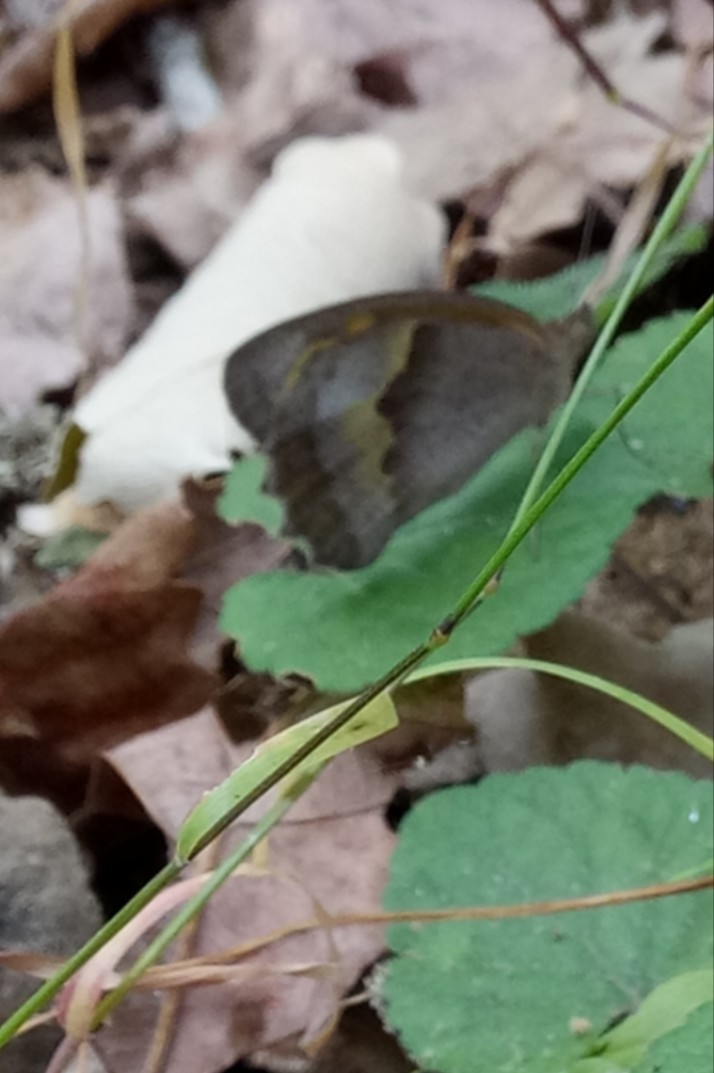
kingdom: Animalia
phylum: Arthropoda
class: Insecta
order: Lepidoptera
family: Nymphalidae
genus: Maniola
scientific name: Maniola jurtina
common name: Meadow brown
